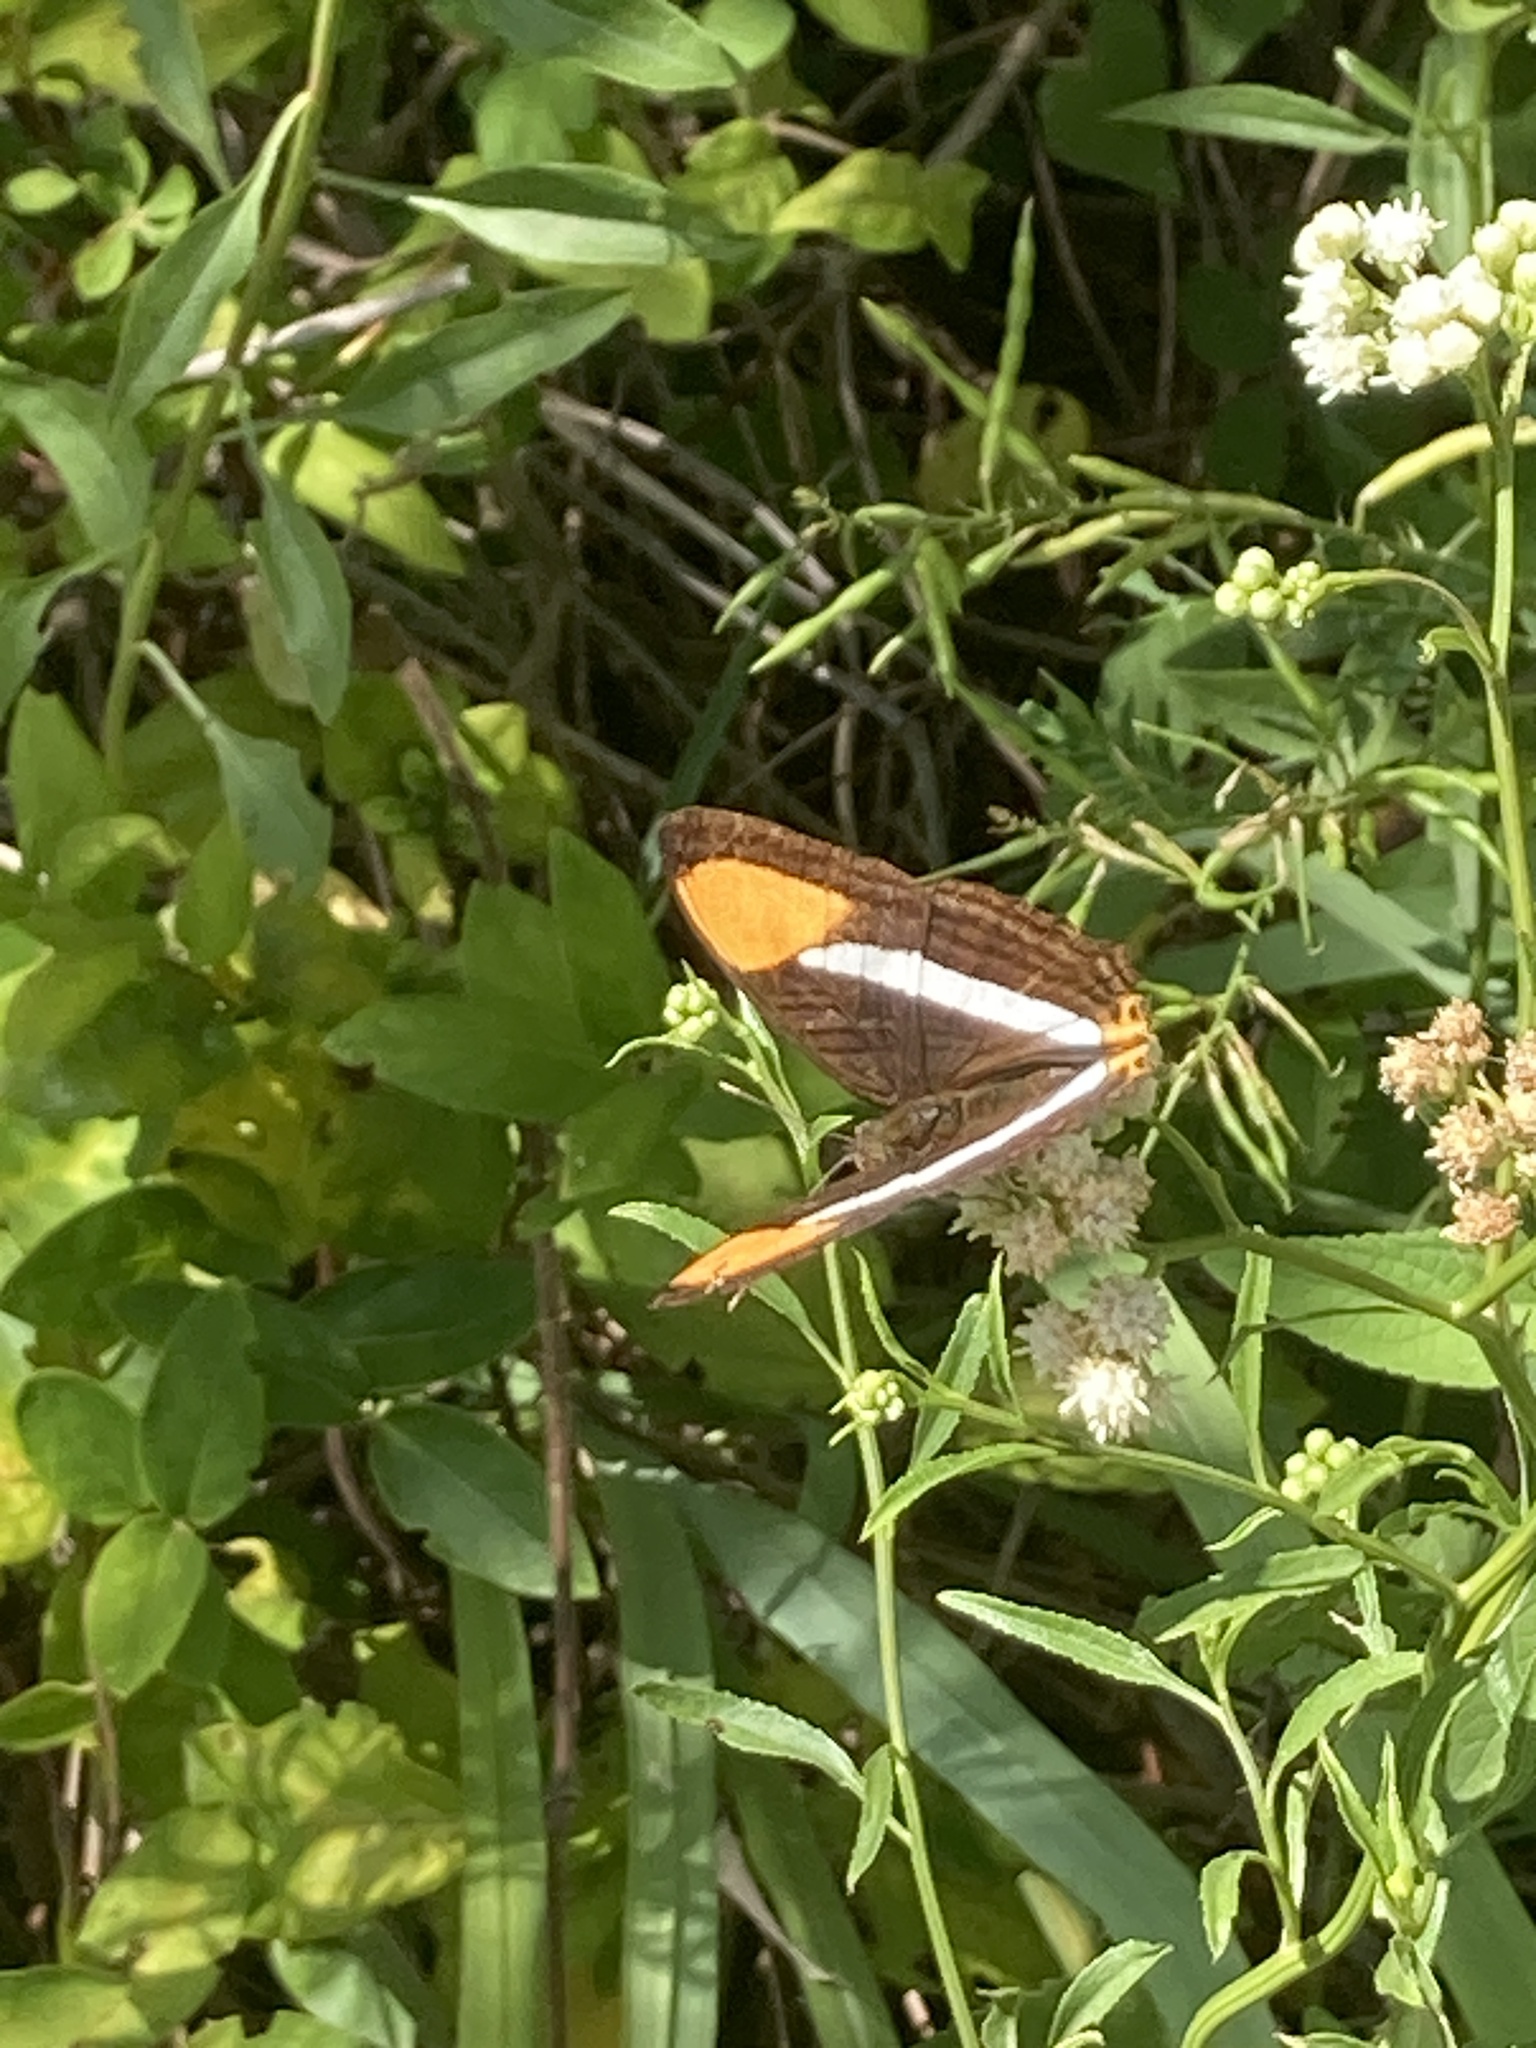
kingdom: Animalia
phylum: Arthropoda
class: Insecta
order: Lepidoptera
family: Nymphalidae
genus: Limenitis
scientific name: Limenitis syma
